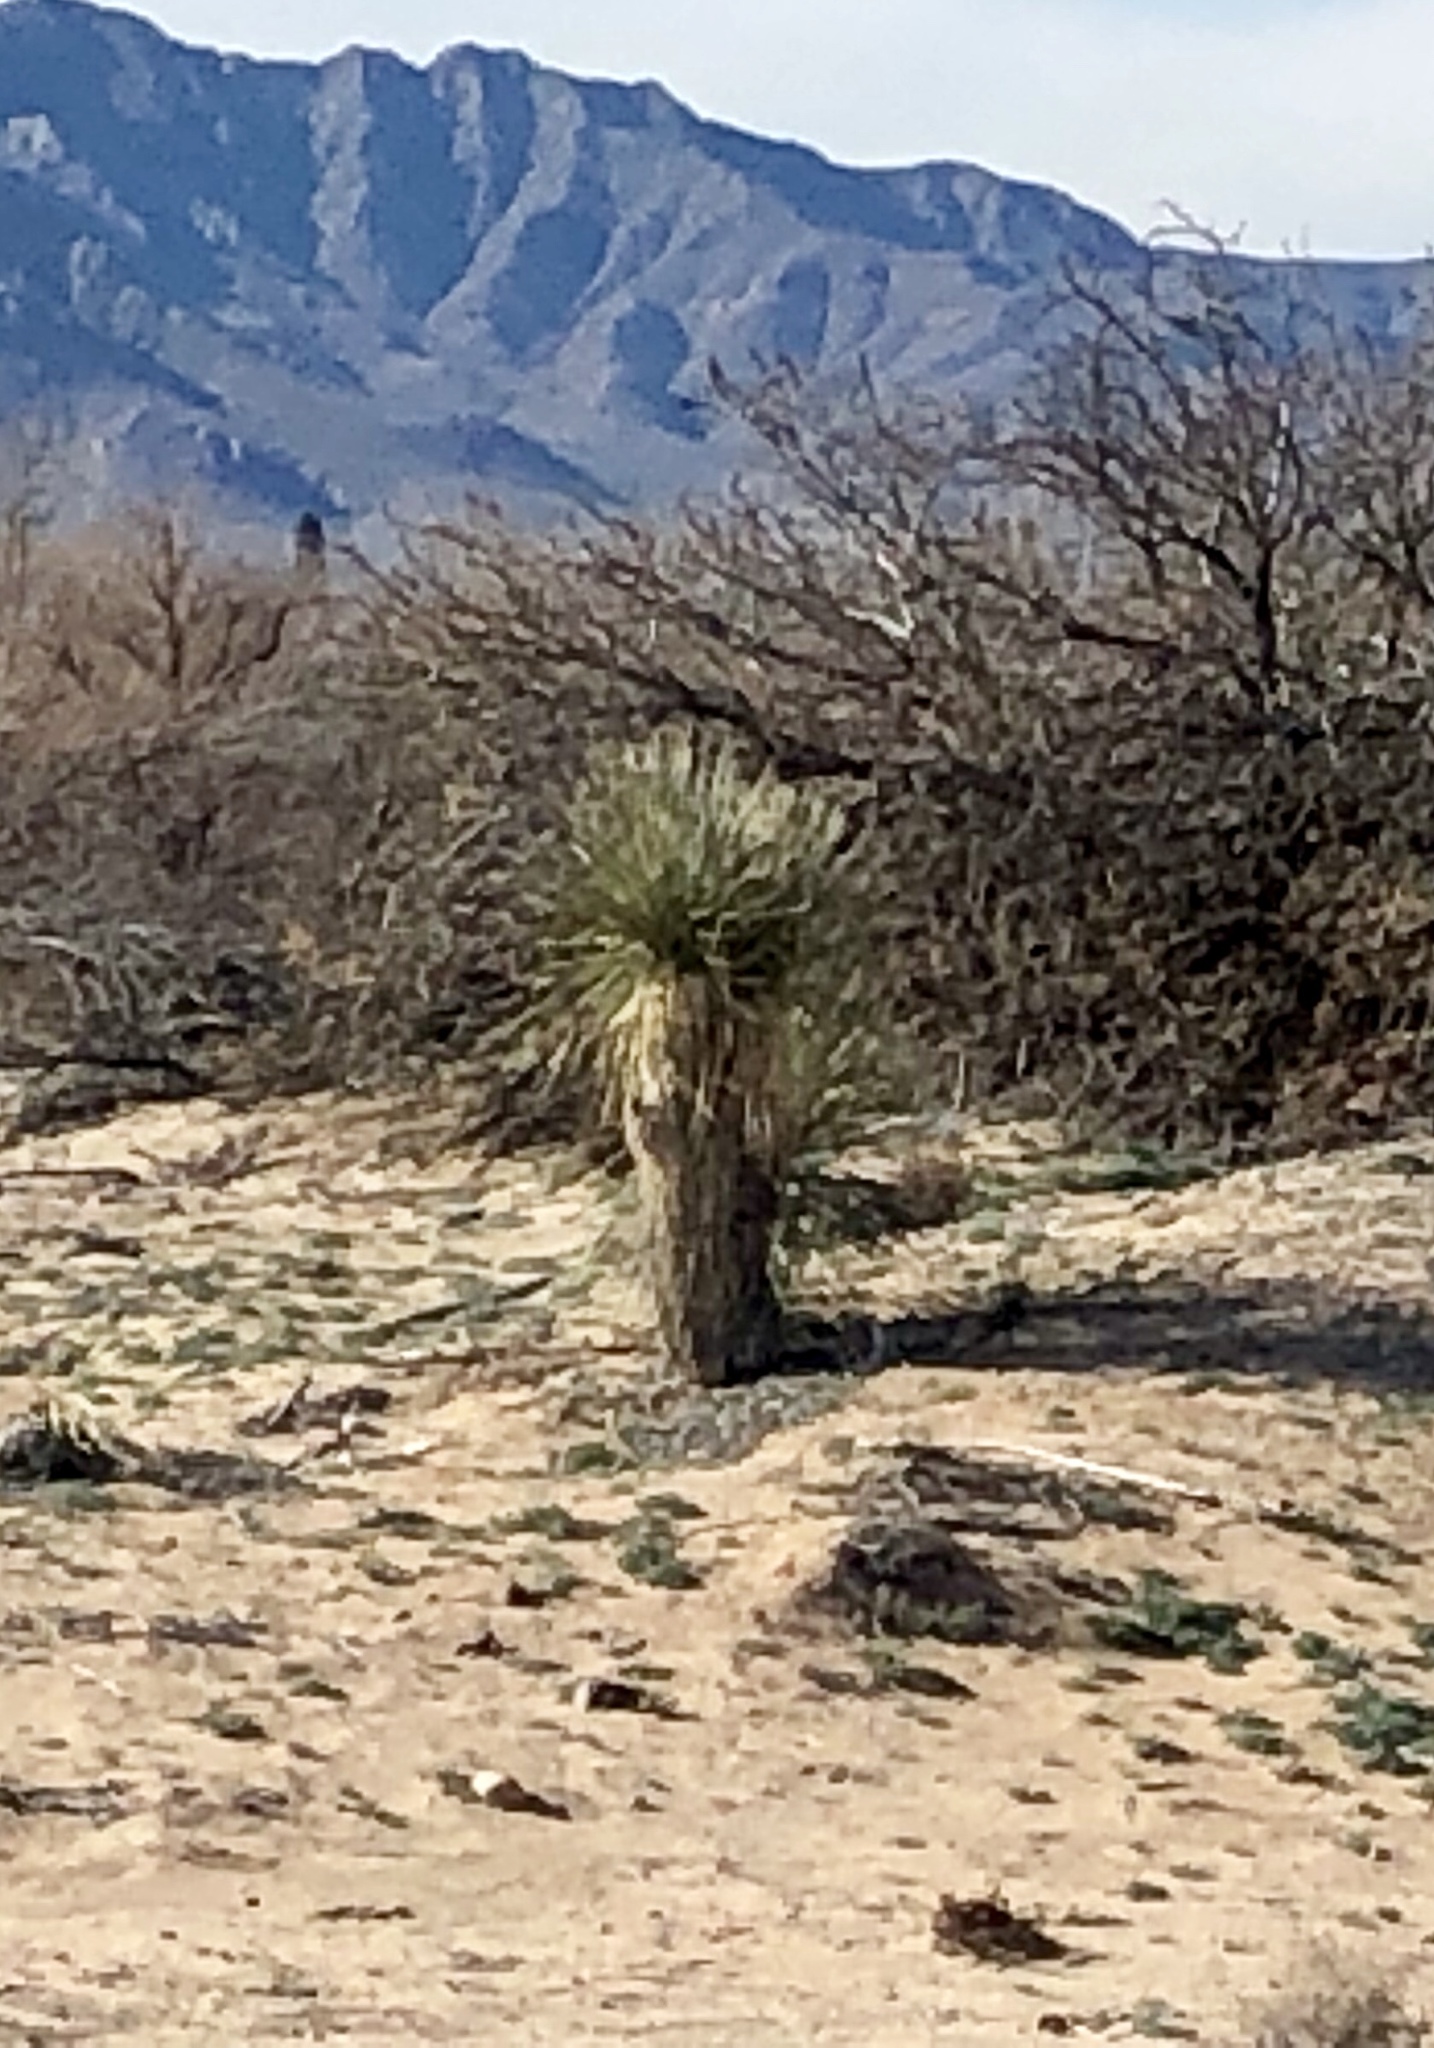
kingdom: Plantae
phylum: Tracheophyta
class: Liliopsida
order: Asparagales
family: Asparagaceae
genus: Yucca
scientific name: Yucca elata
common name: Palmella
